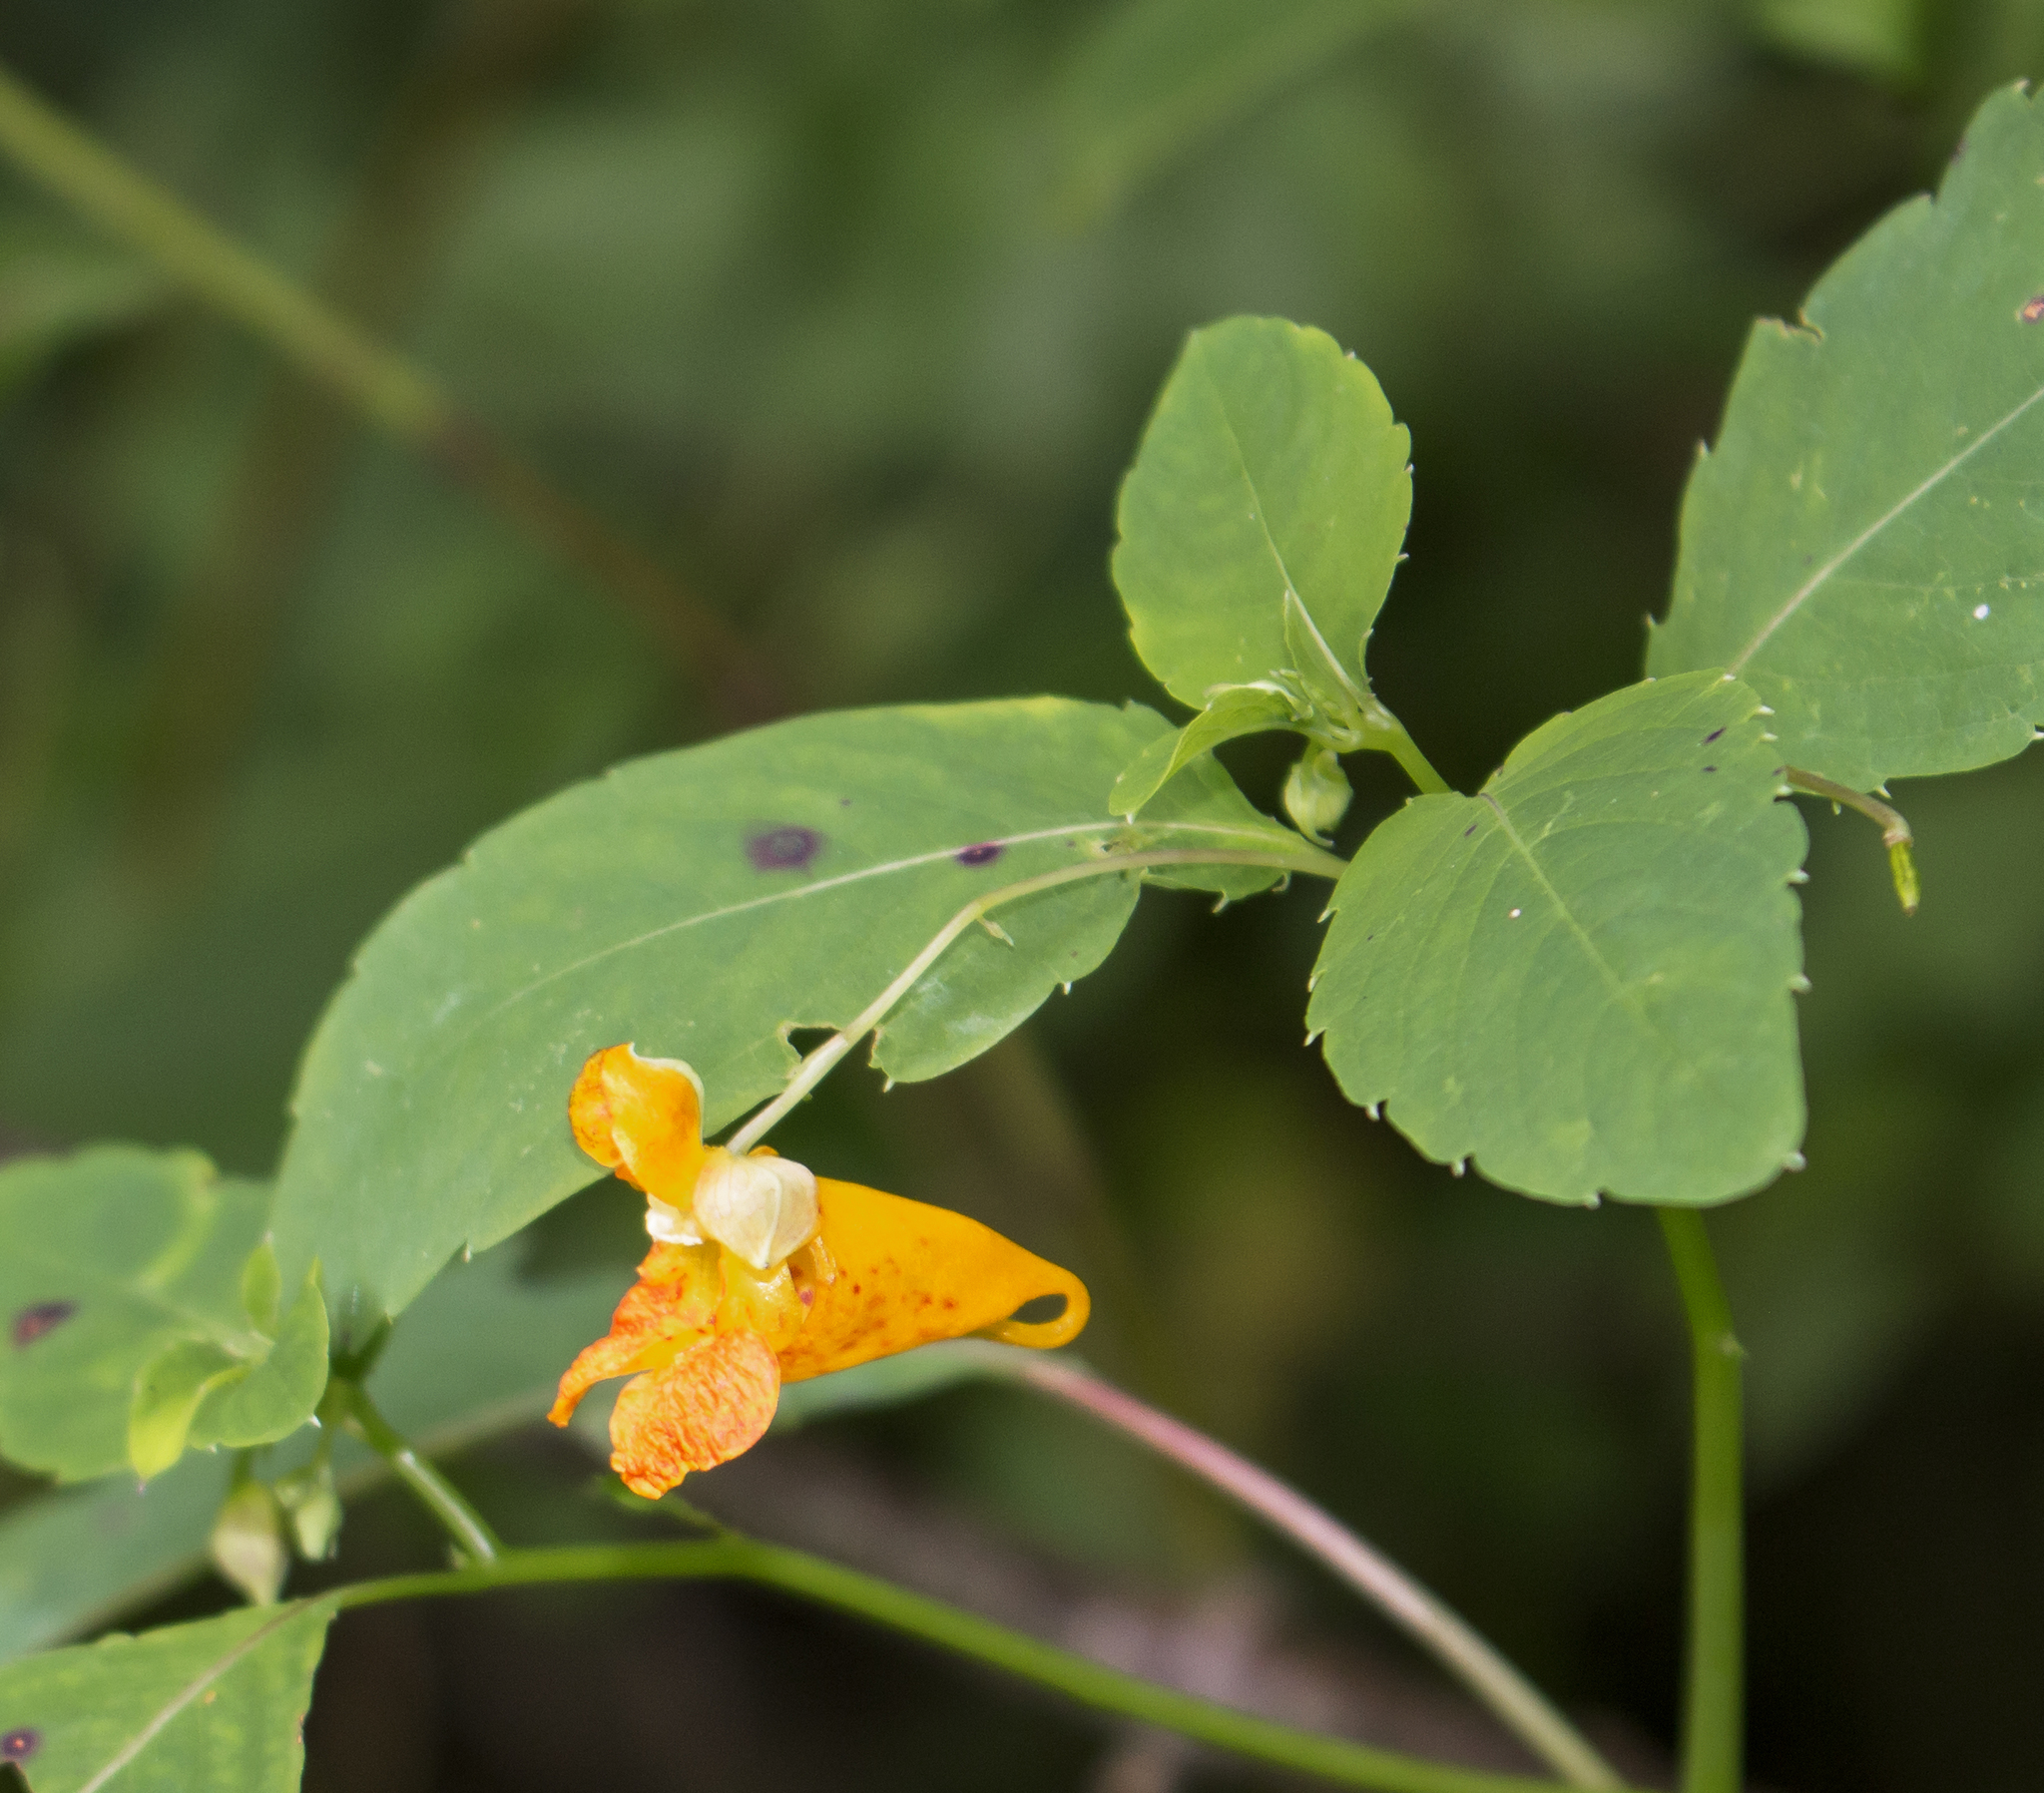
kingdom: Plantae
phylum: Tracheophyta
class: Magnoliopsida
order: Ericales
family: Balsaminaceae
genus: Impatiens
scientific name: Impatiens capensis
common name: Orange balsam
